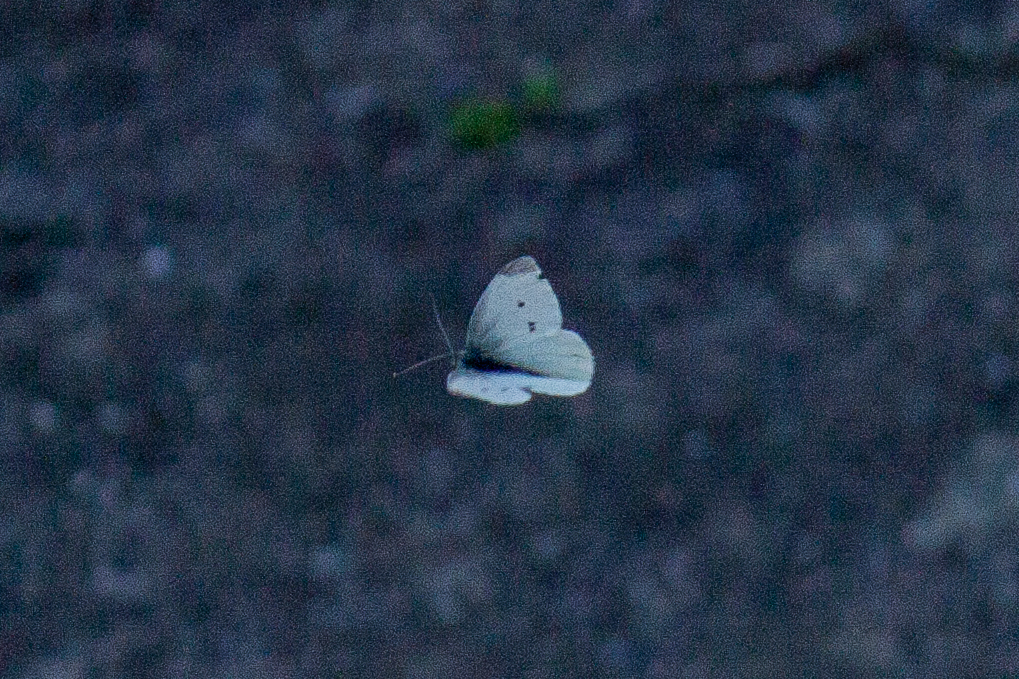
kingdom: Animalia
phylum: Arthropoda
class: Insecta
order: Lepidoptera
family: Pieridae
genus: Pieris
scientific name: Pieris rapae
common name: Small white
